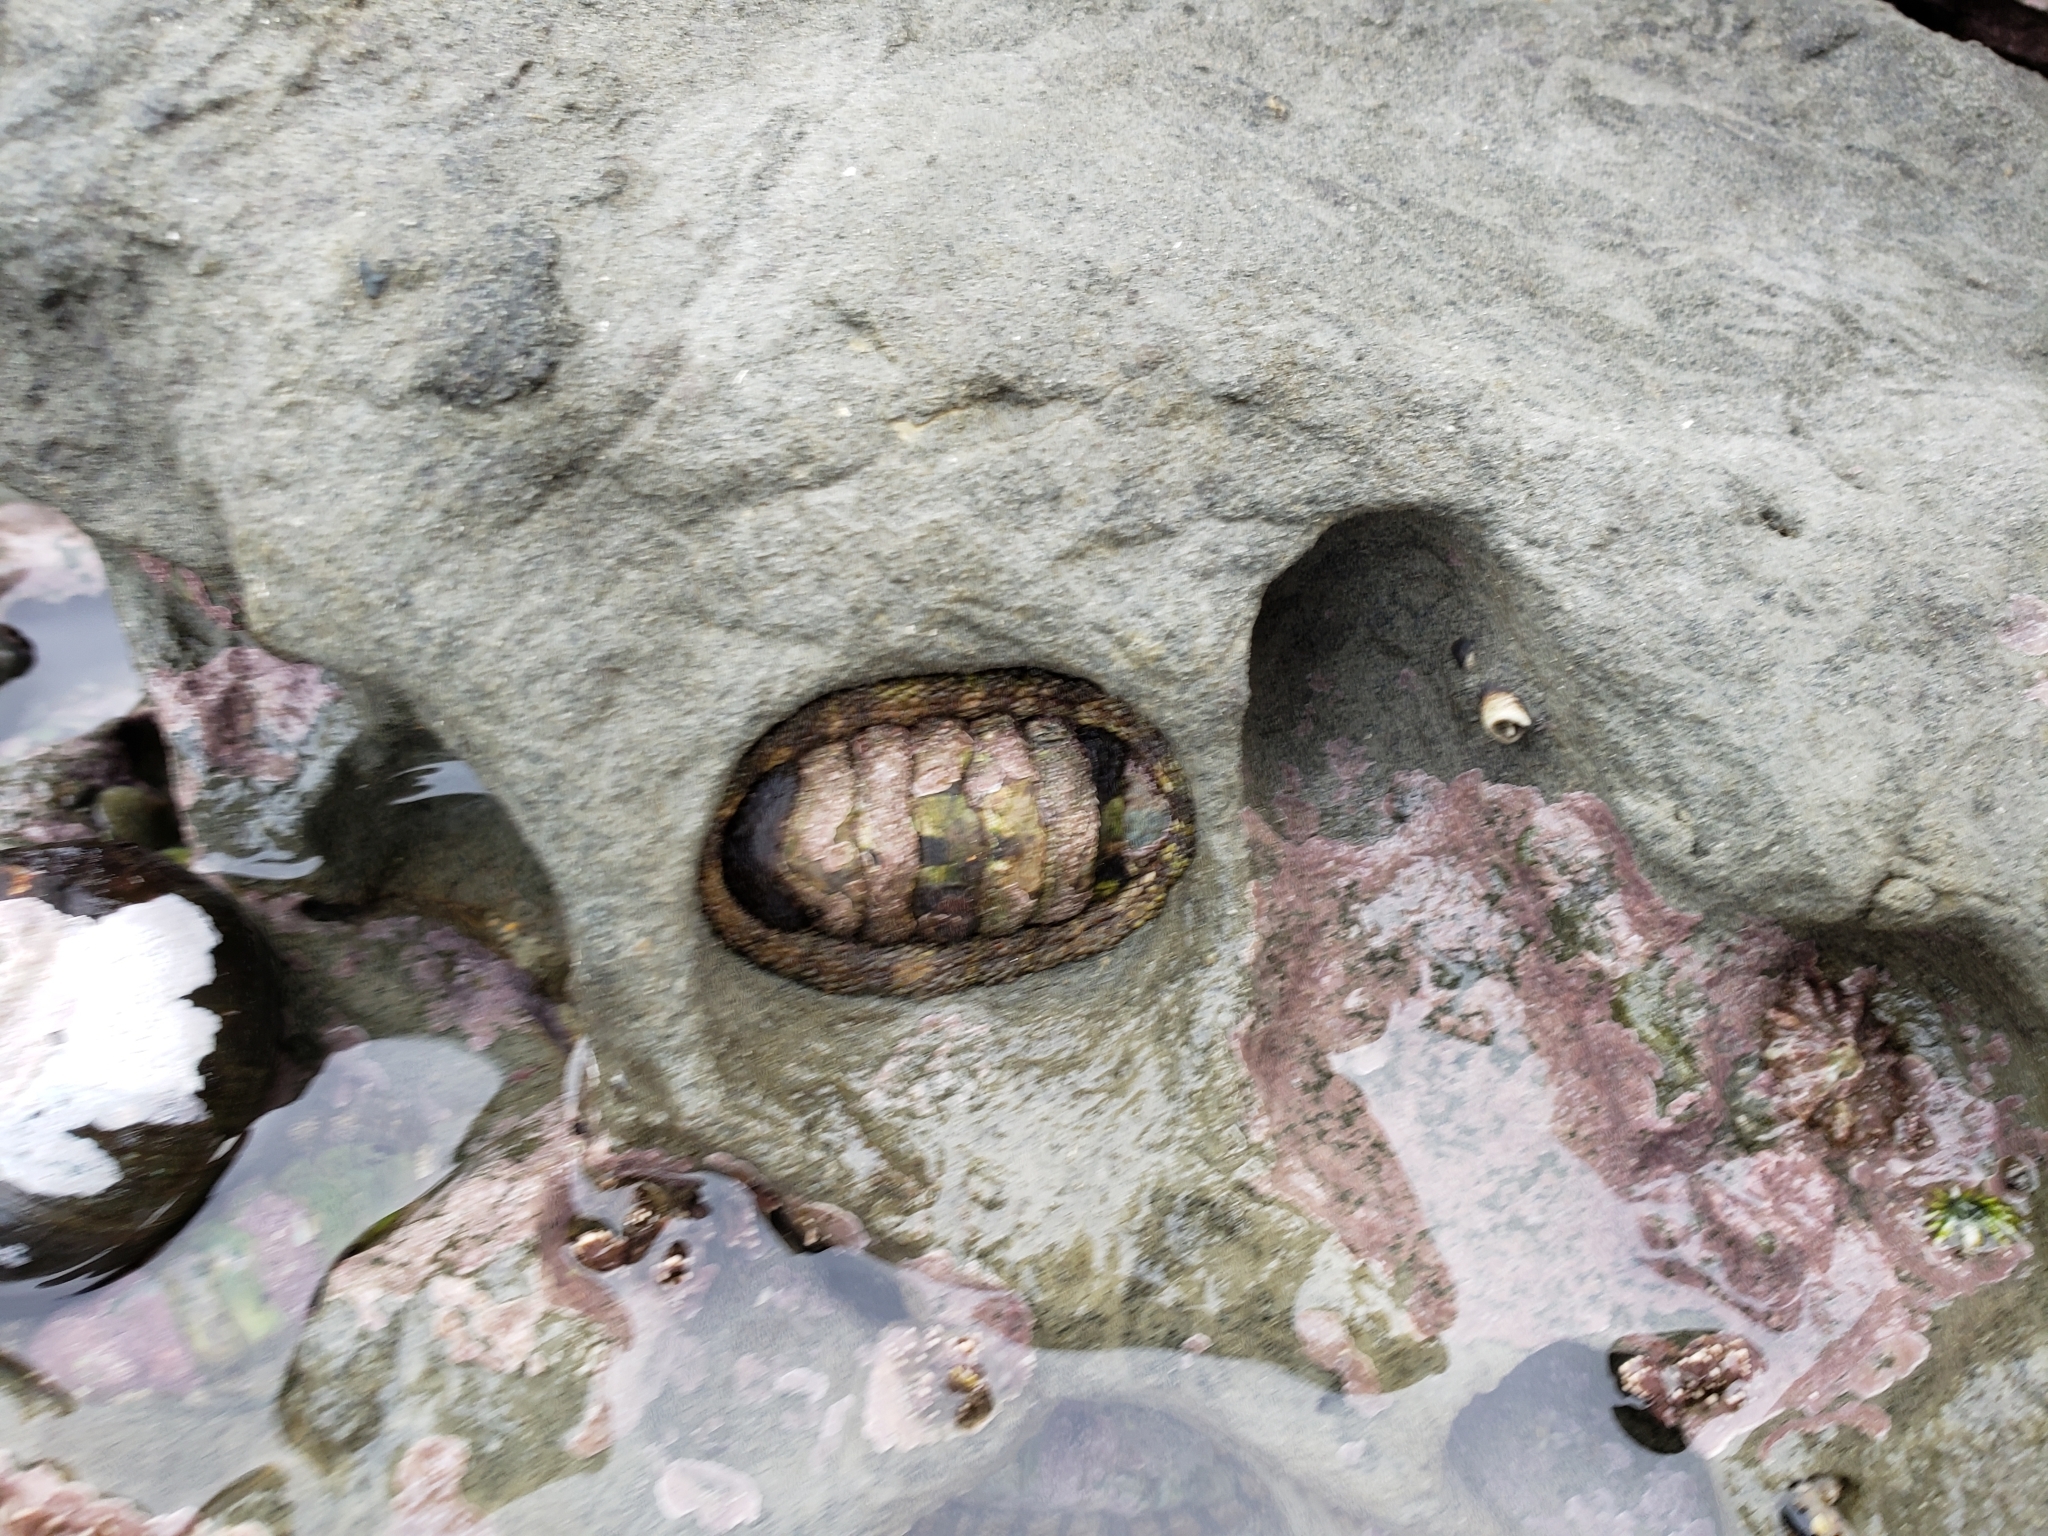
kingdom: Animalia
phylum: Mollusca
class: Polyplacophora
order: Chitonida
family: Chitonidae
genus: Sypharochiton
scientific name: Sypharochiton pelliserpentis
